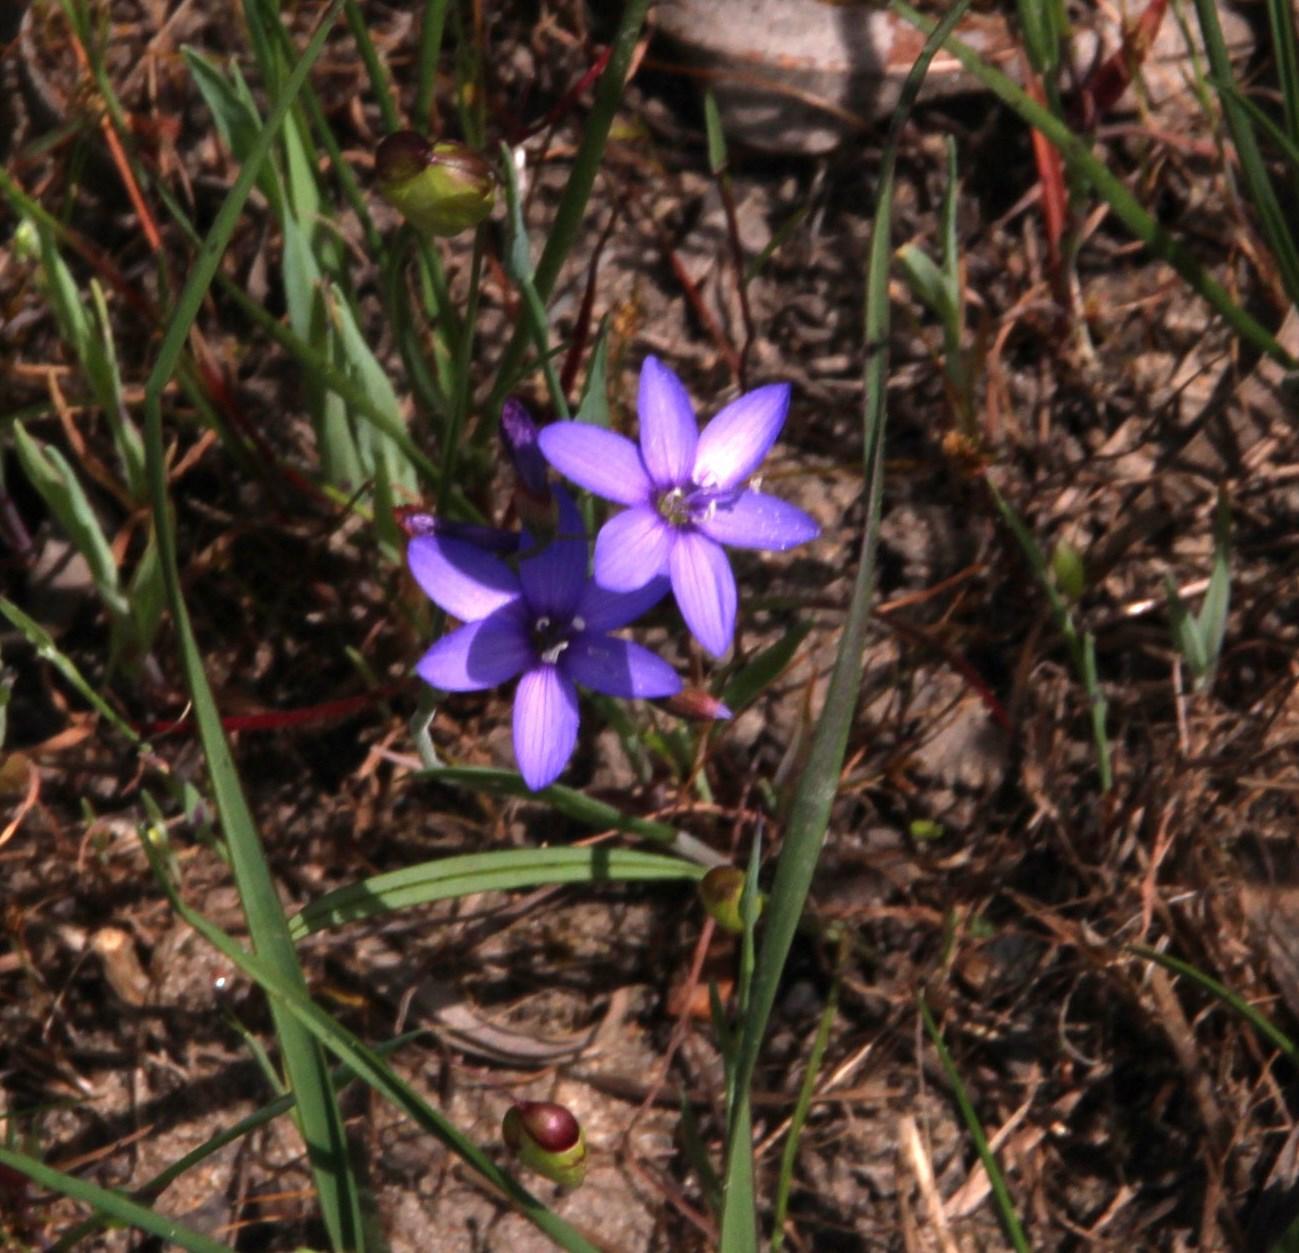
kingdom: Plantae
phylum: Tracheophyta
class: Liliopsida
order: Asparagales
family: Iridaceae
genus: Geissorhiza
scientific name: Geissorhiza aspera
